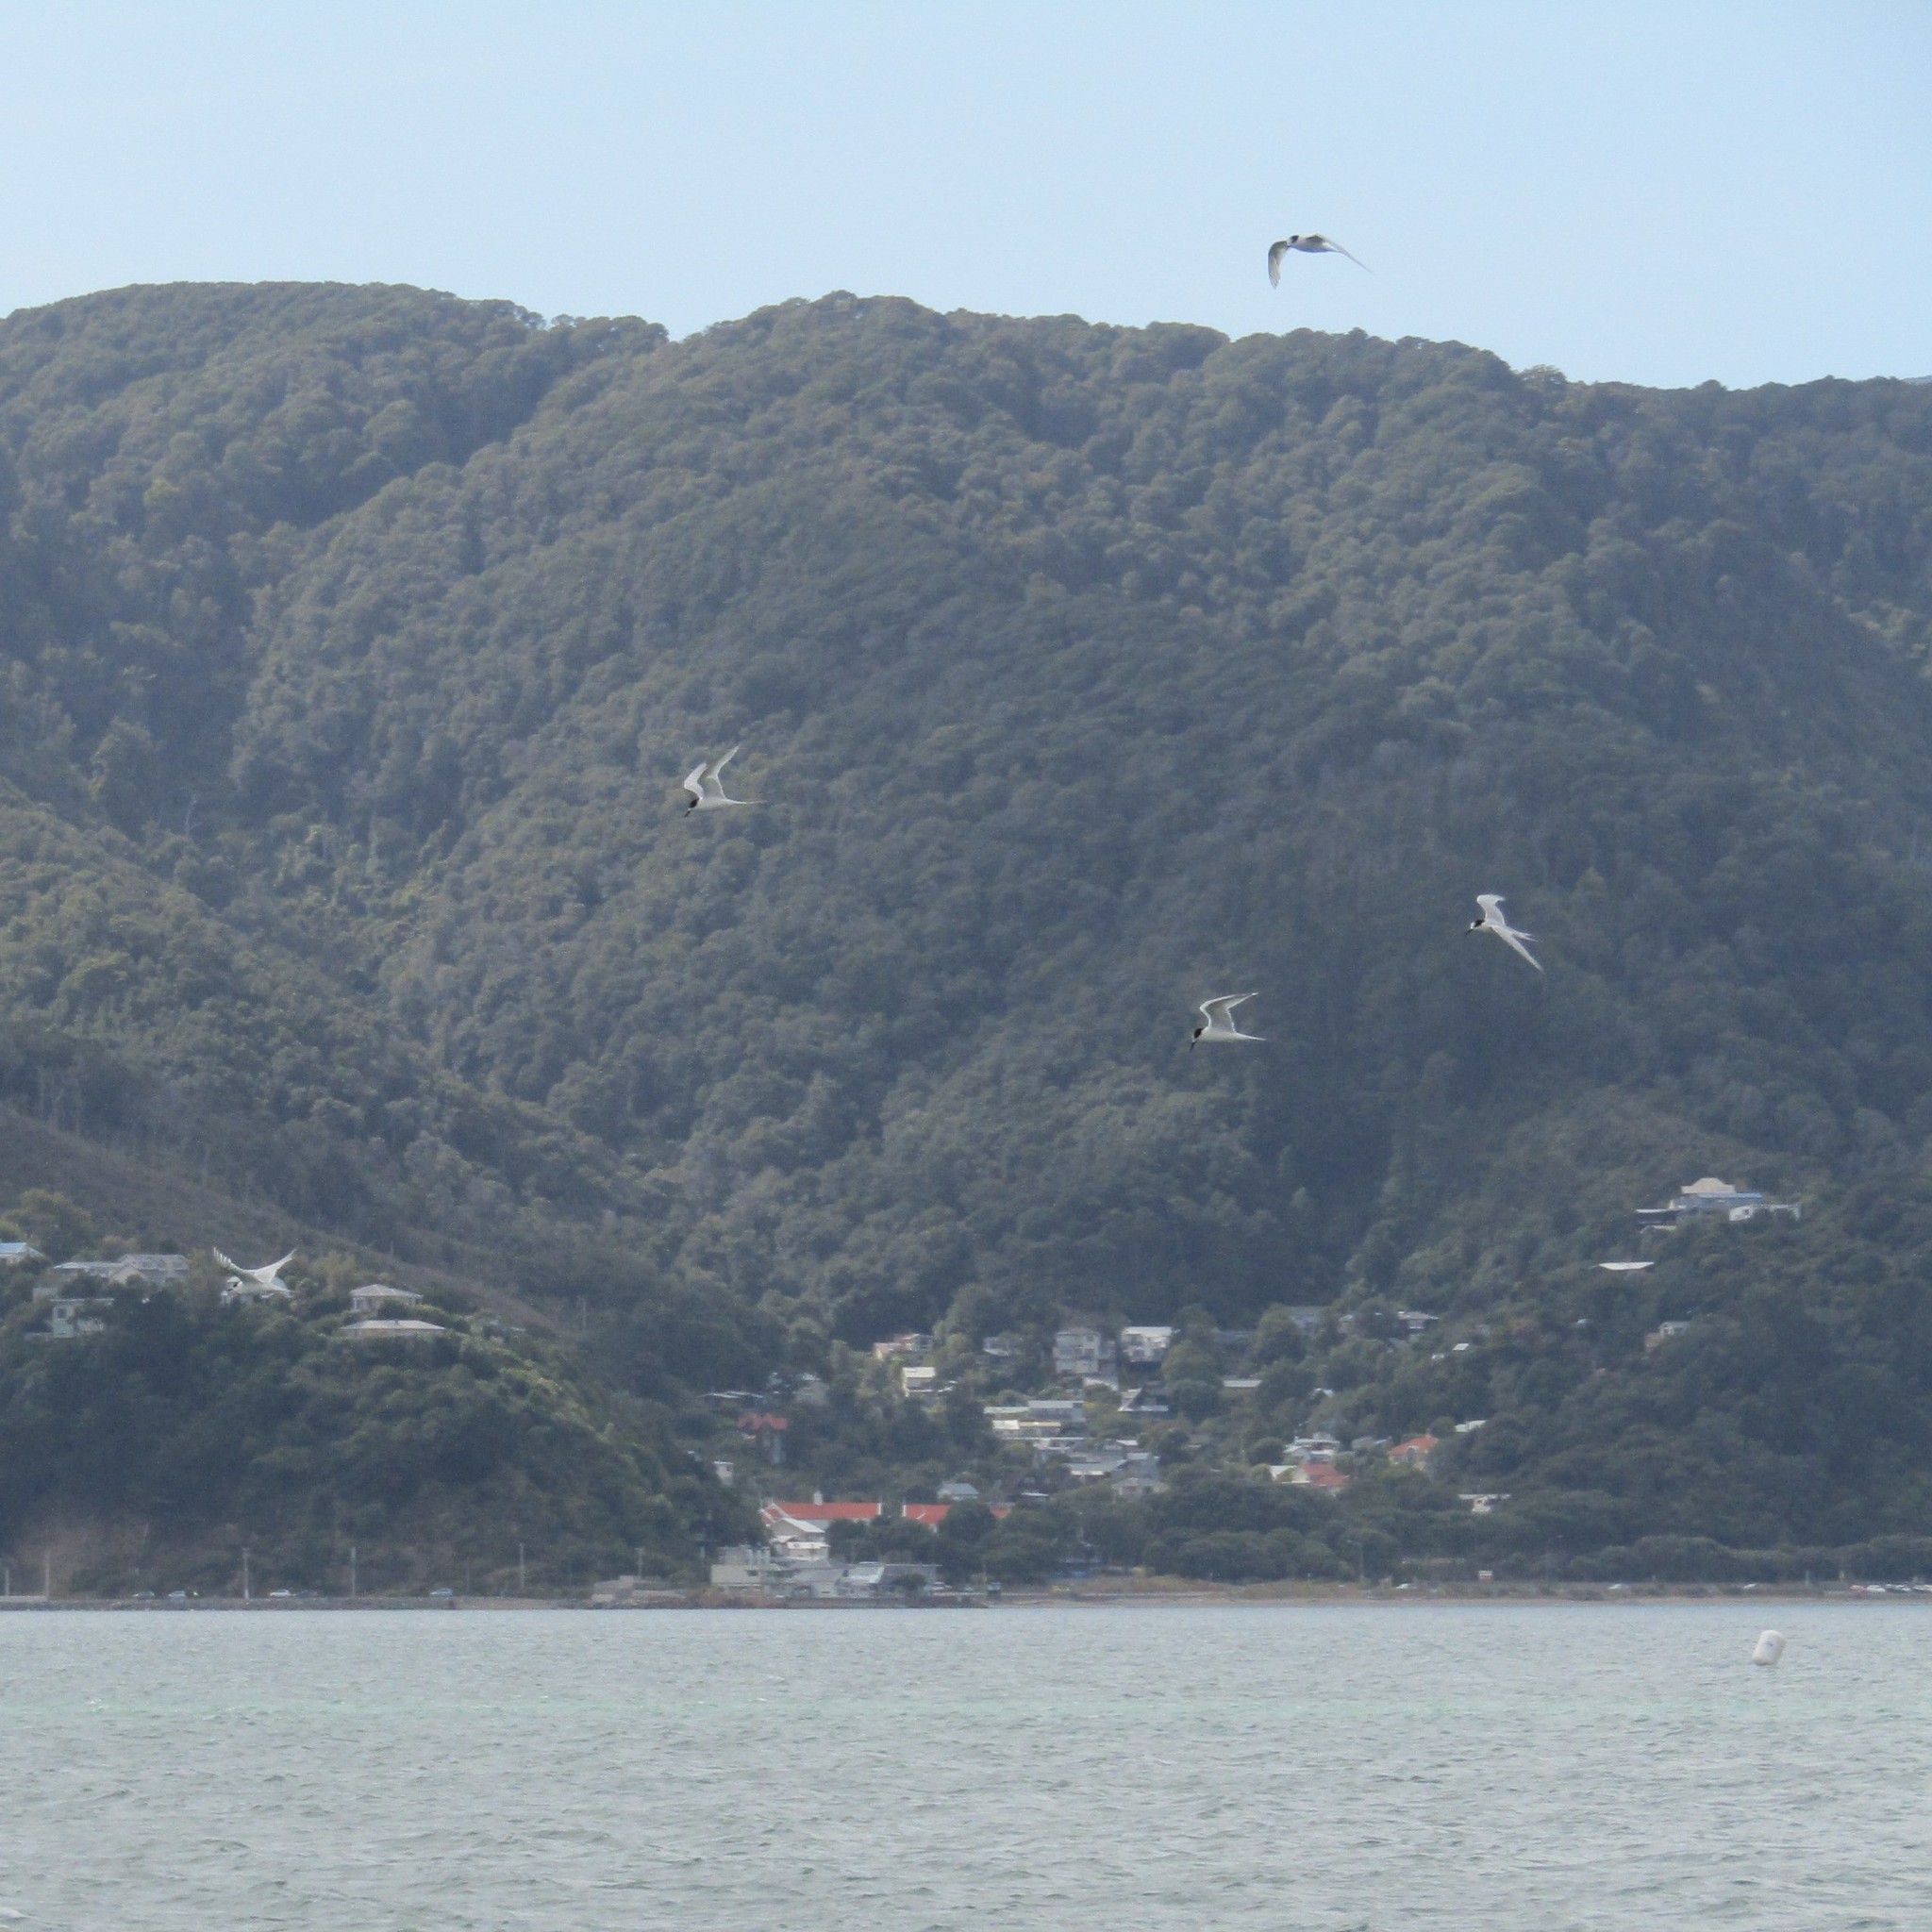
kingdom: Animalia
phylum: Chordata
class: Aves
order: Charadriiformes
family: Laridae
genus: Sterna
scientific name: Sterna striata
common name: White-fronted tern
